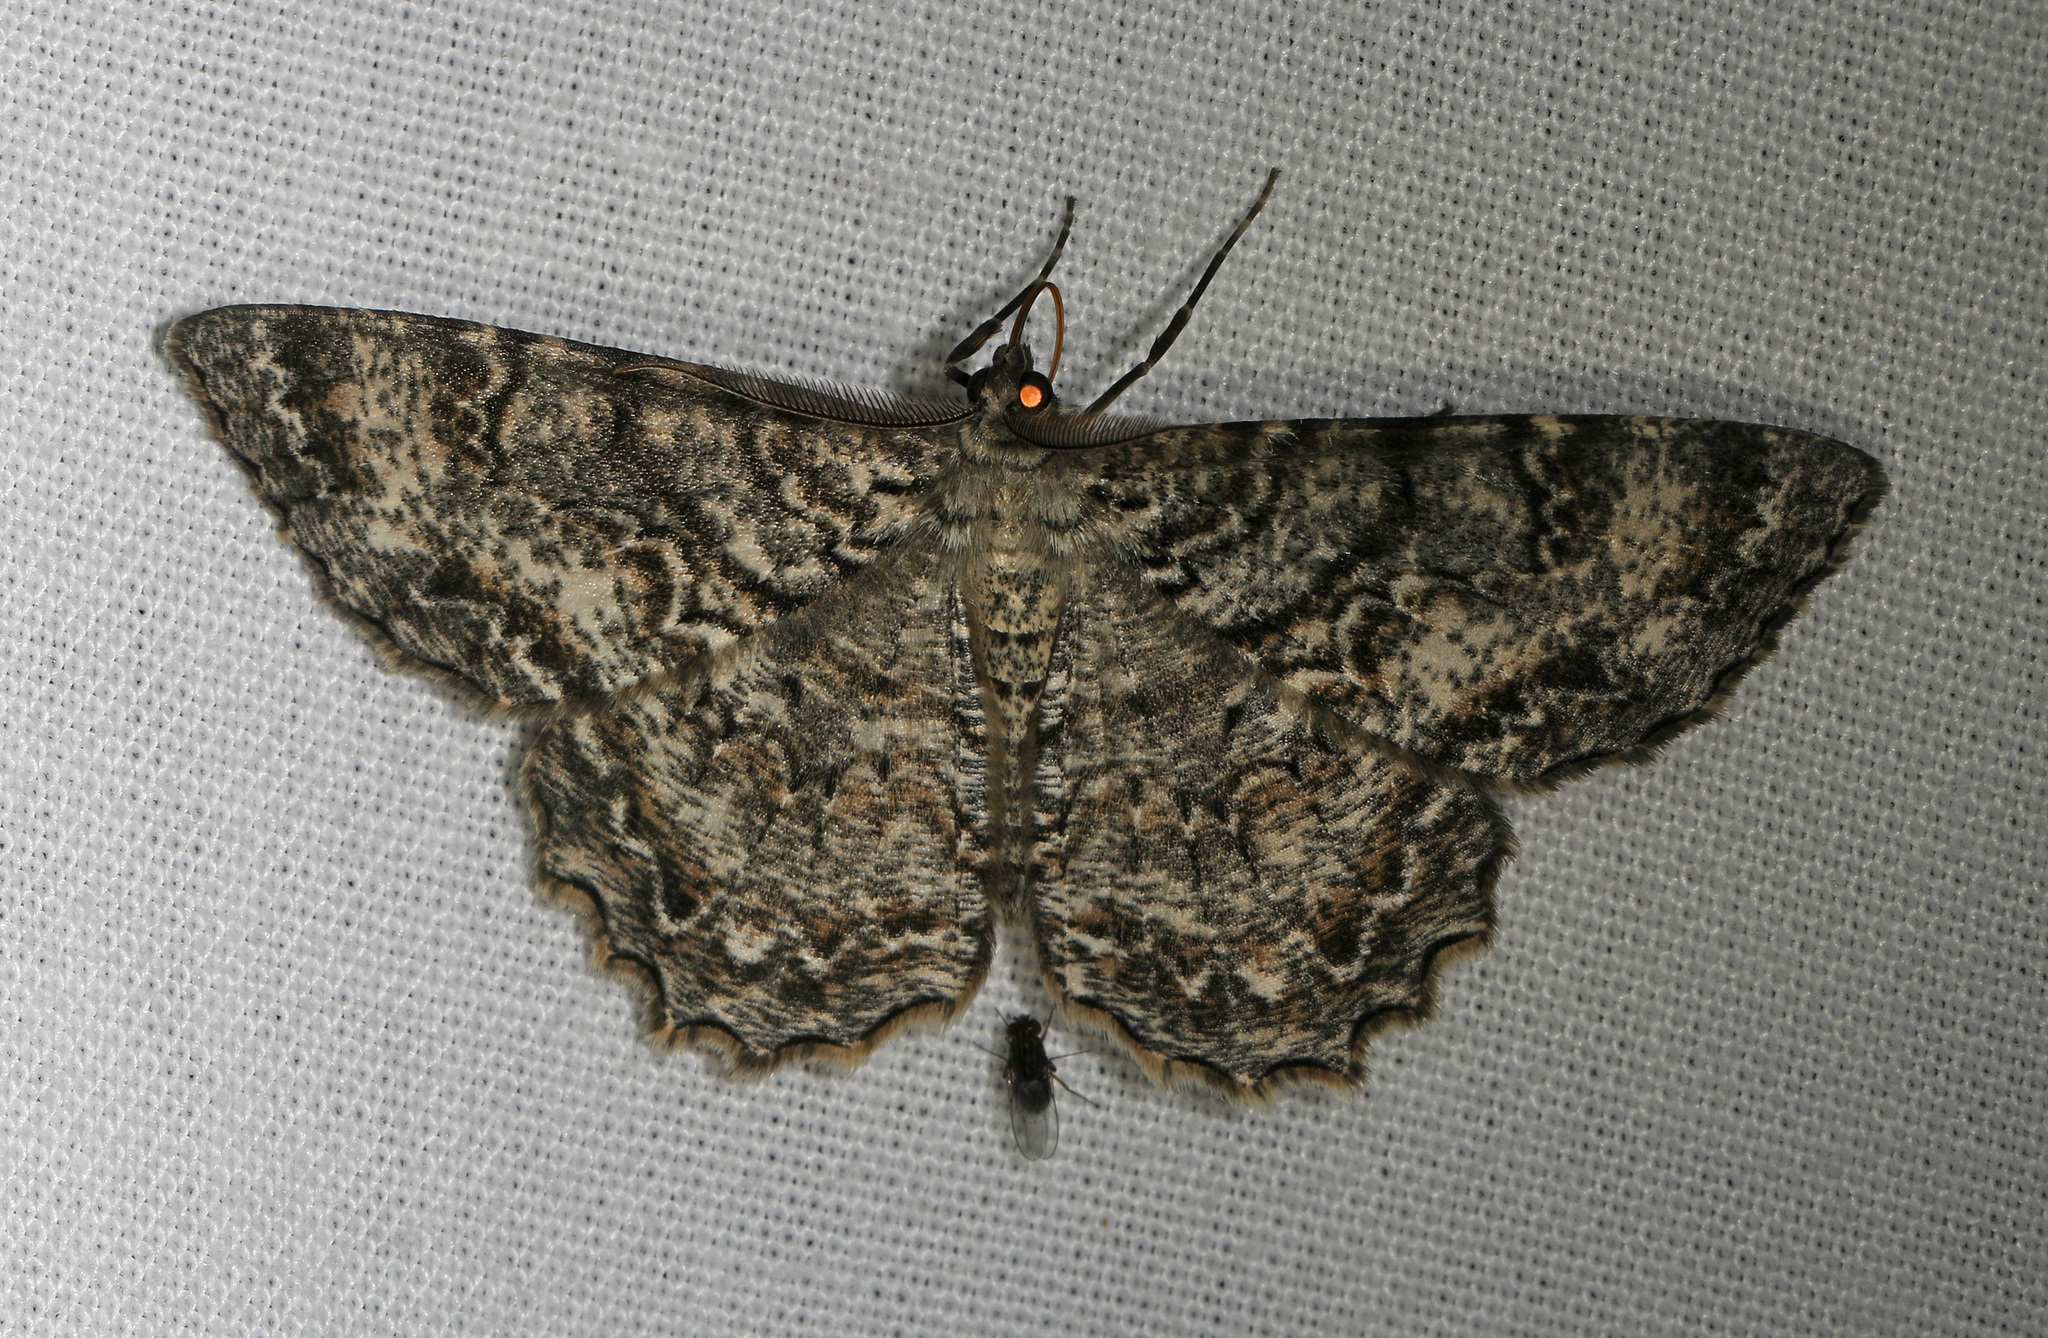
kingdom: Animalia
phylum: Arthropoda
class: Insecta
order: Lepidoptera
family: Geometridae
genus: Epimecis
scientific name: Epimecis hortaria
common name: Tulip-tree beauty
